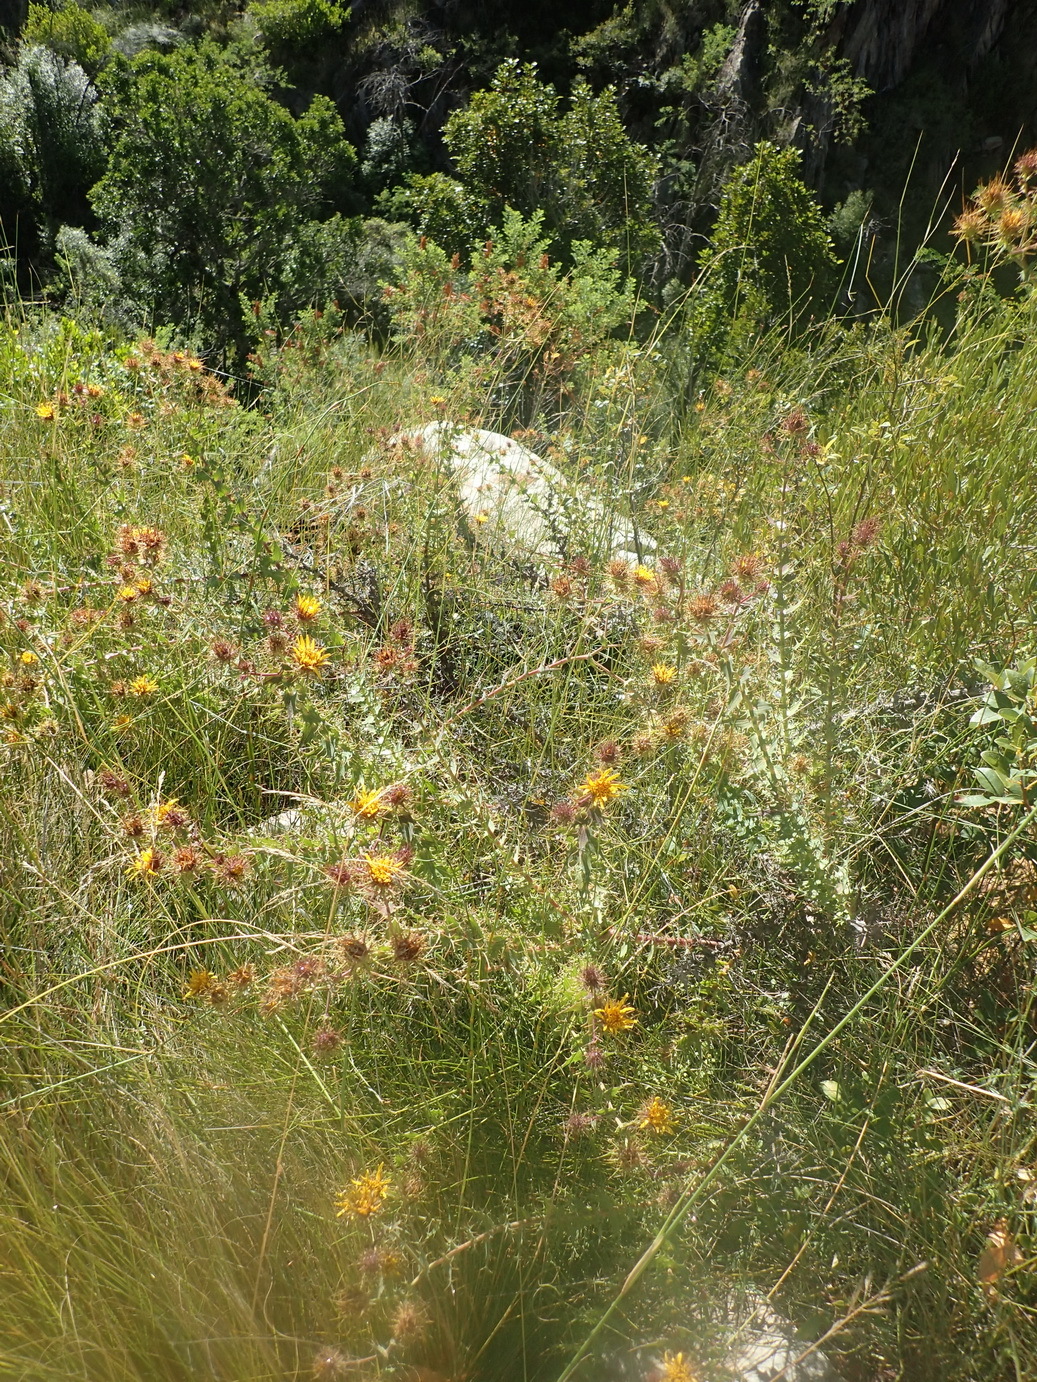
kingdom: Plantae
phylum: Tracheophyta
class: Magnoliopsida
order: Asterales
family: Asteraceae
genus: Berkheya
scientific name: Berkheya cruciata
